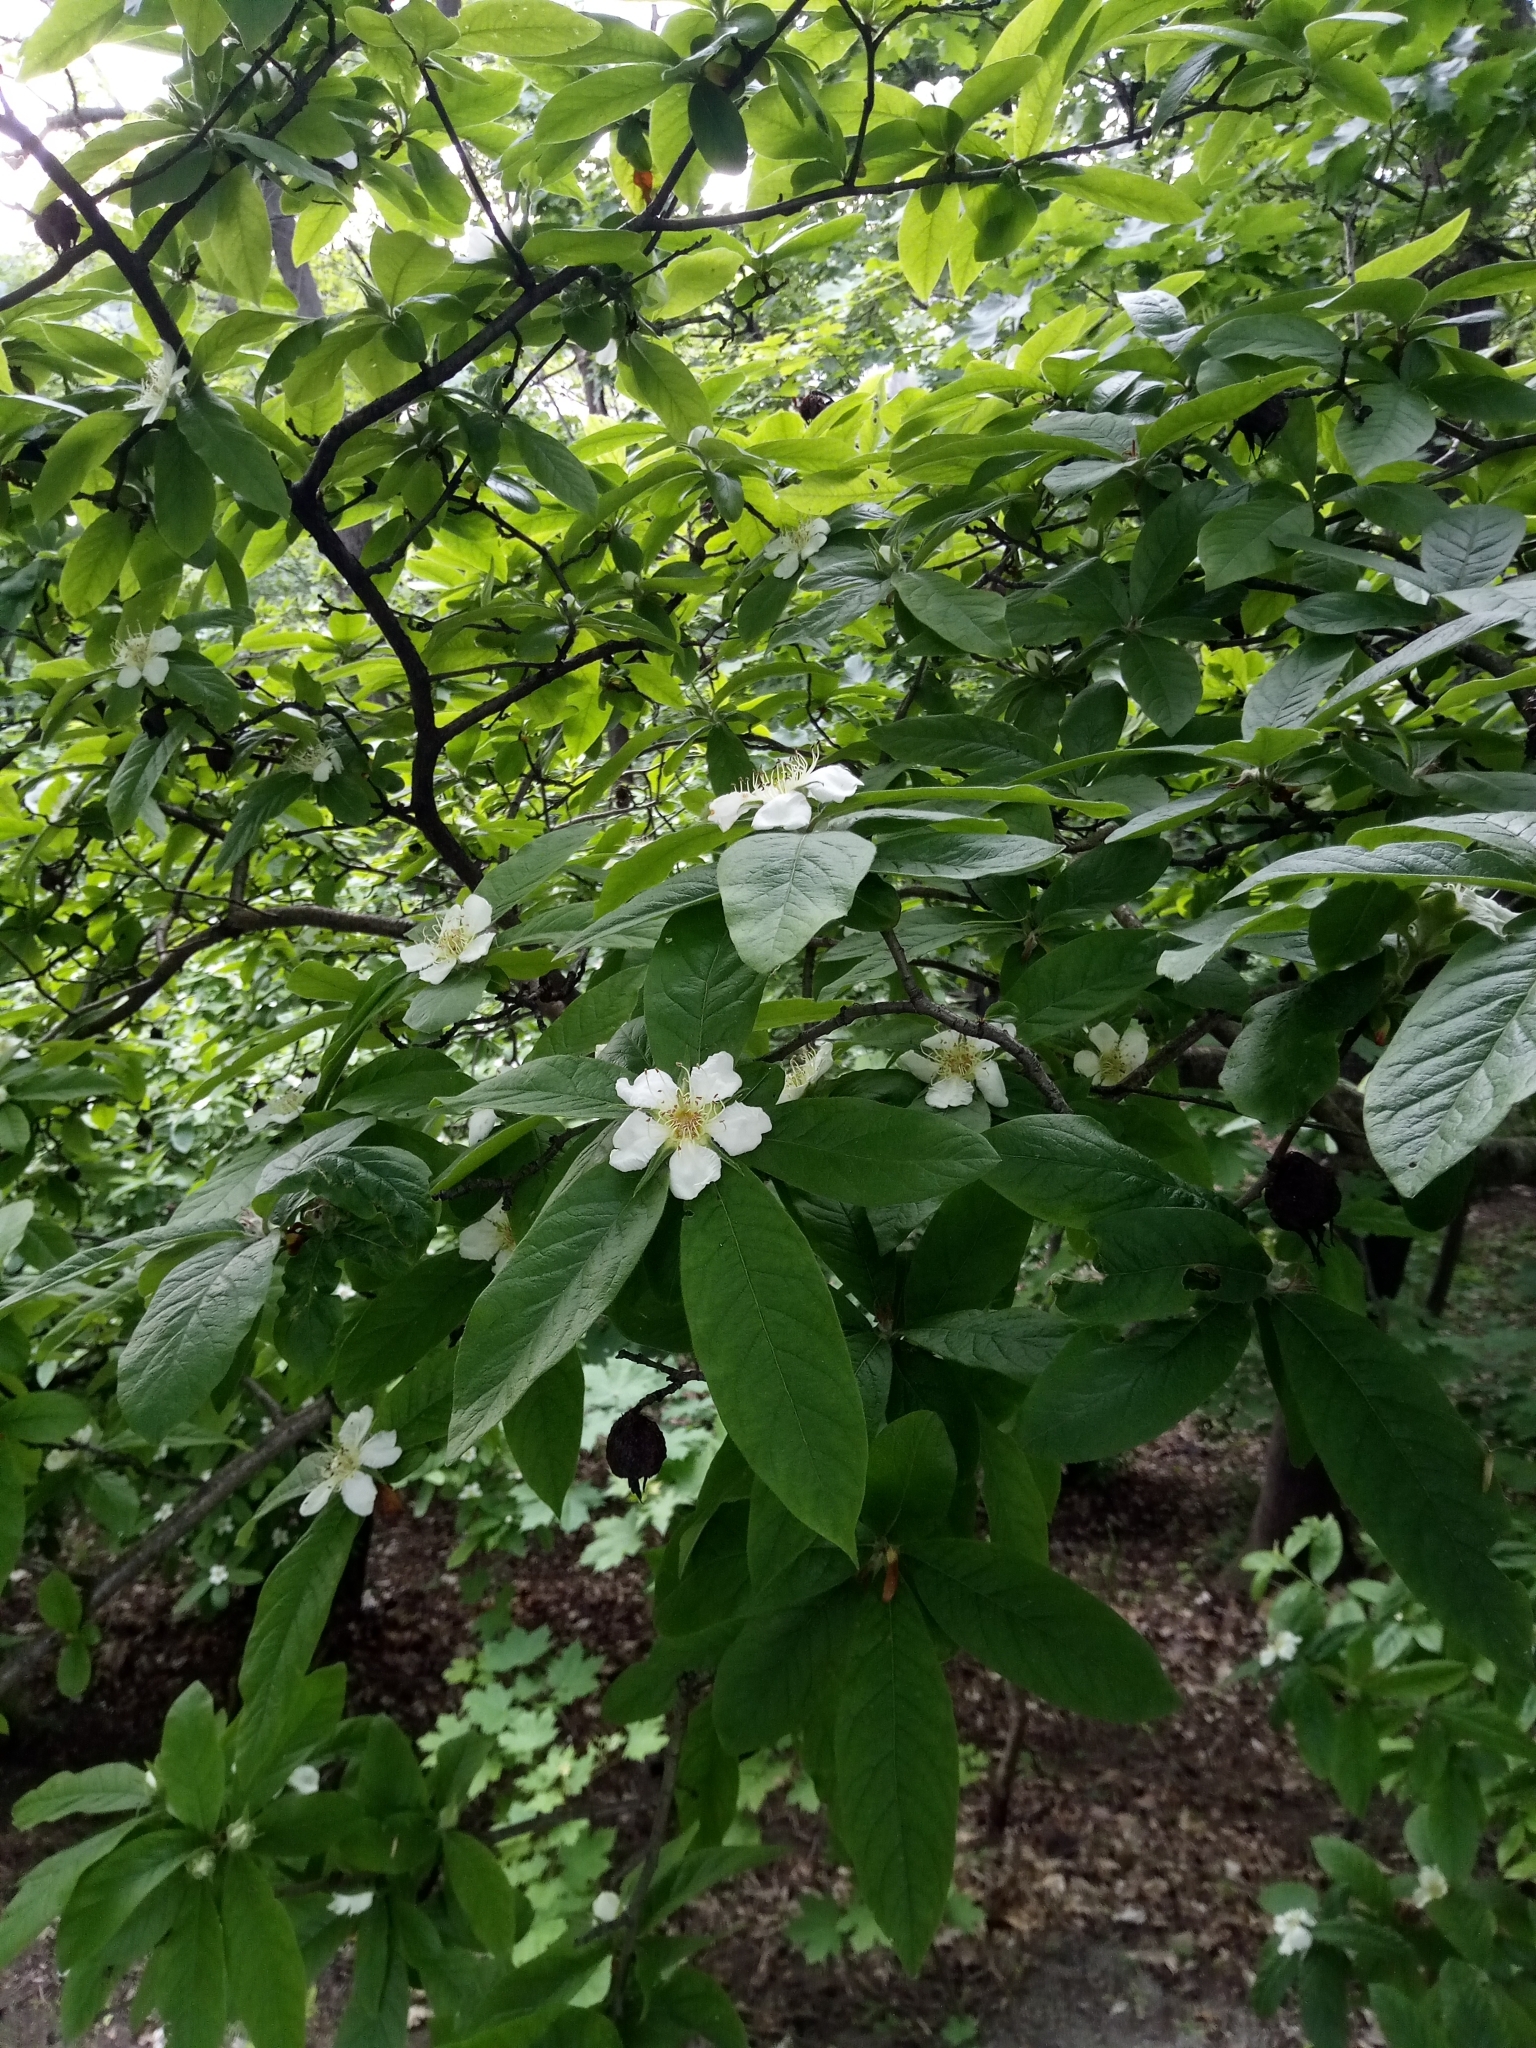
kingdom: Plantae
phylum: Tracheophyta
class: Magnoliopsida
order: Rosales
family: Rosaceae
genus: Mespilus
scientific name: Mespilus germanica
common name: Medlar
